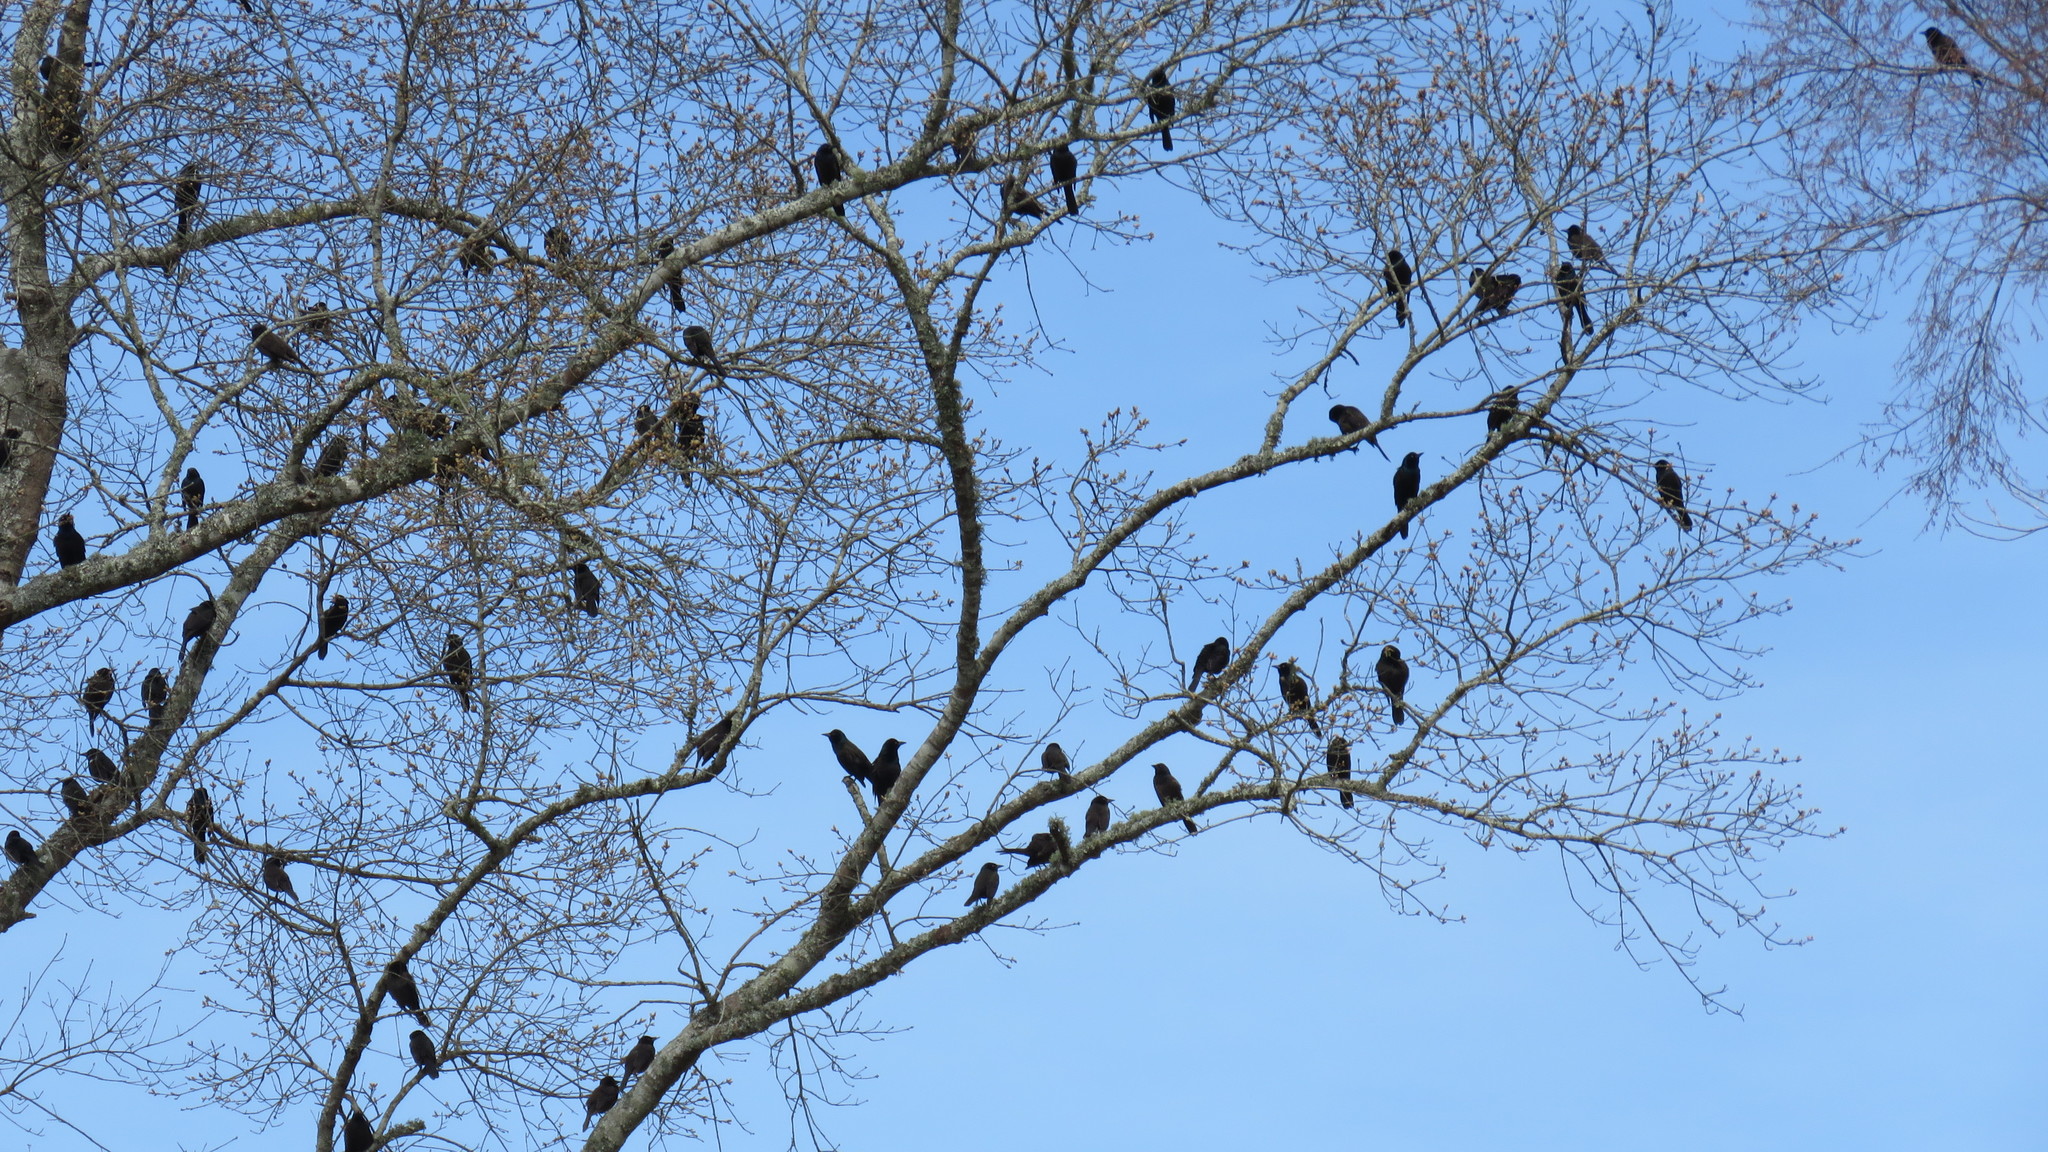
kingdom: Animalia
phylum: Chordata
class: Aves
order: Passeriformes
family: Icteridae
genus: Quiscalus
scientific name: Quiscalus quiscula
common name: Common grackle
